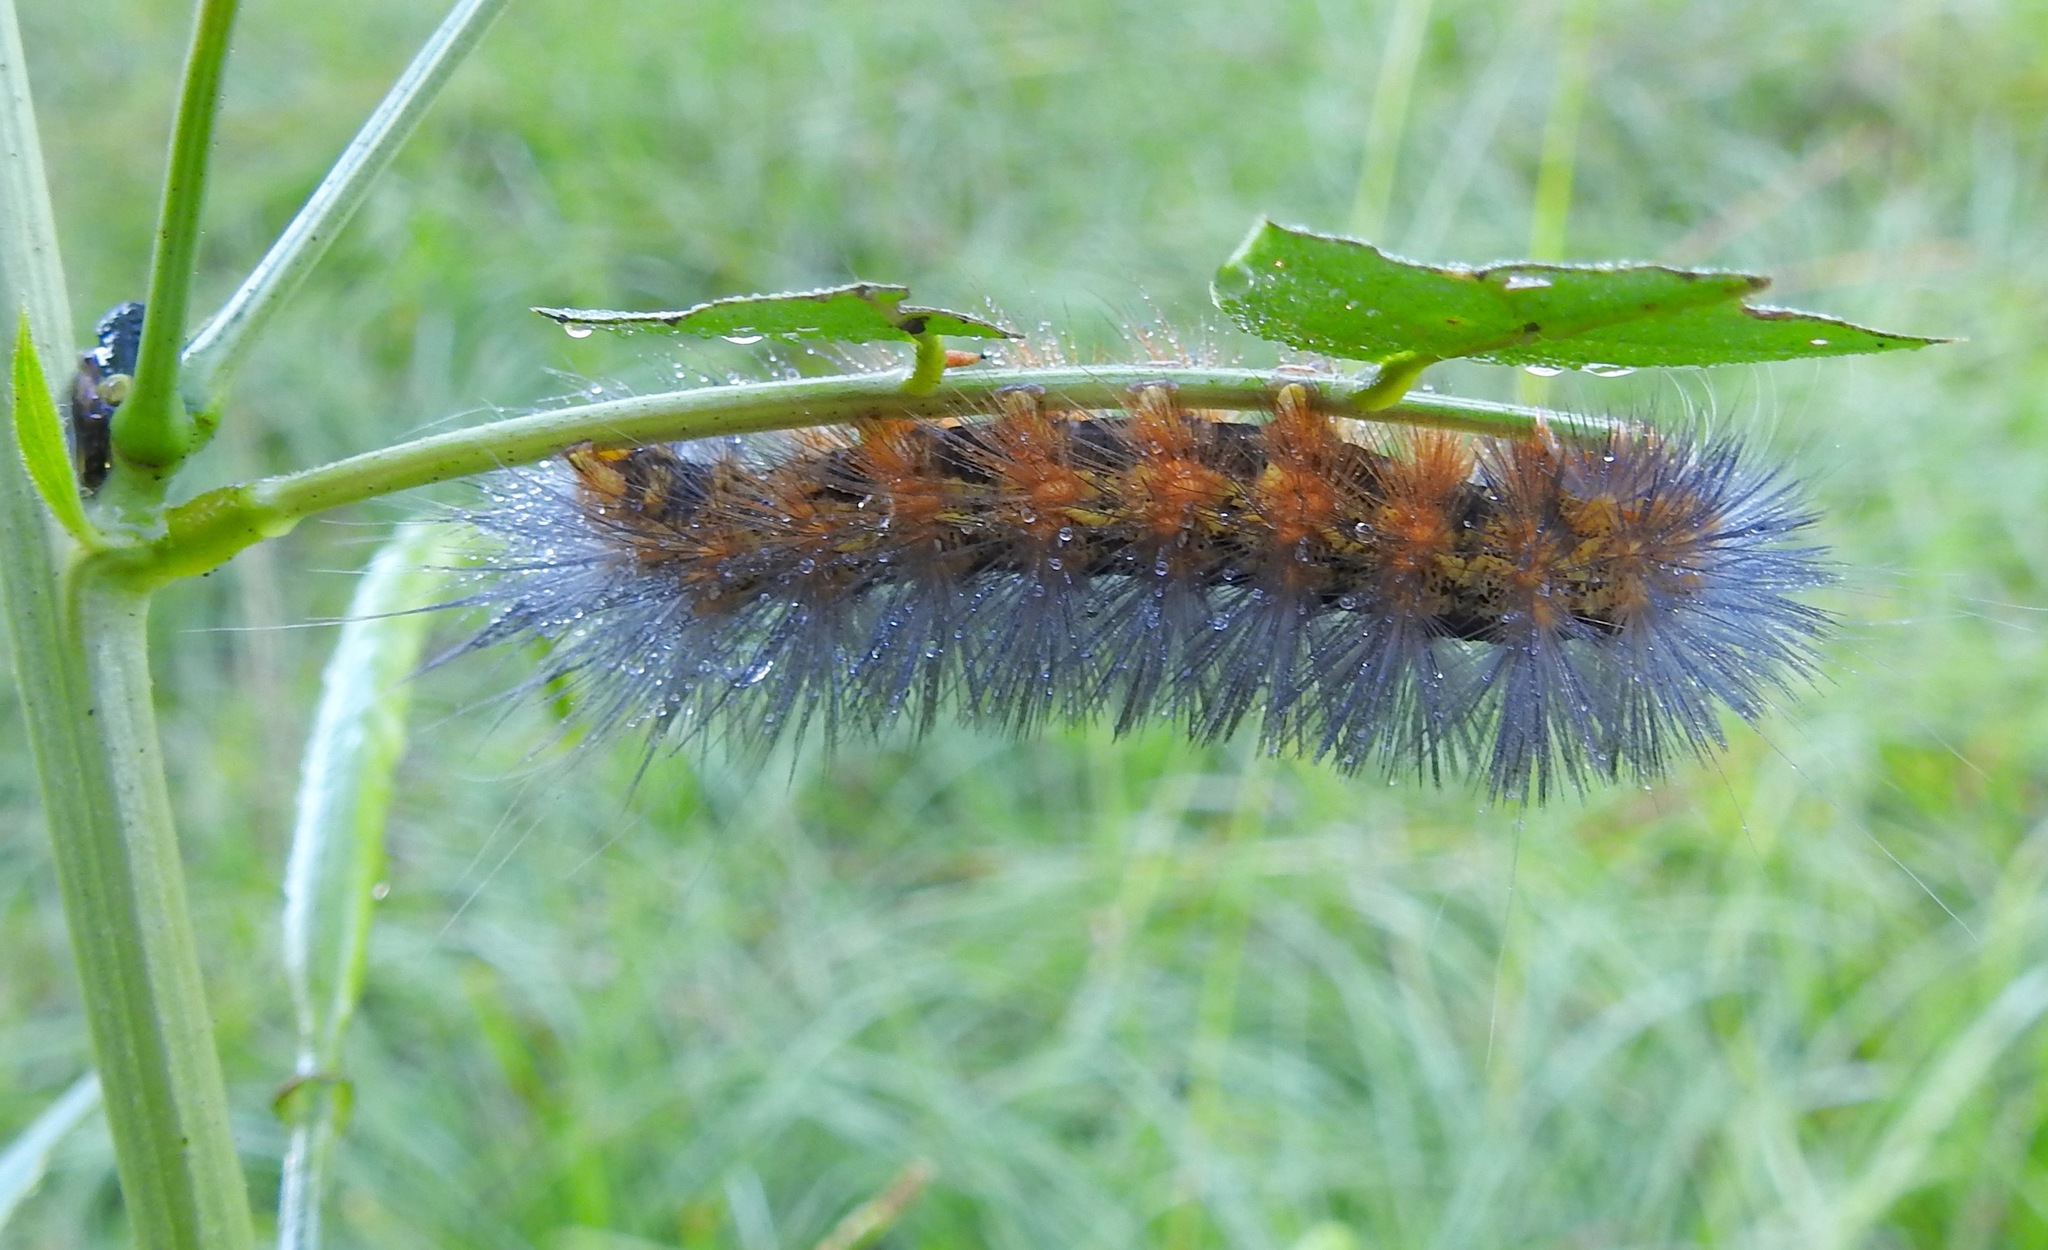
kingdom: Animalia
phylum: Arthropoda
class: Insecta
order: Lepidoptera
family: Erebidae
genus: Estigmene
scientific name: Estigmene acrea
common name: Salt marsh moth
